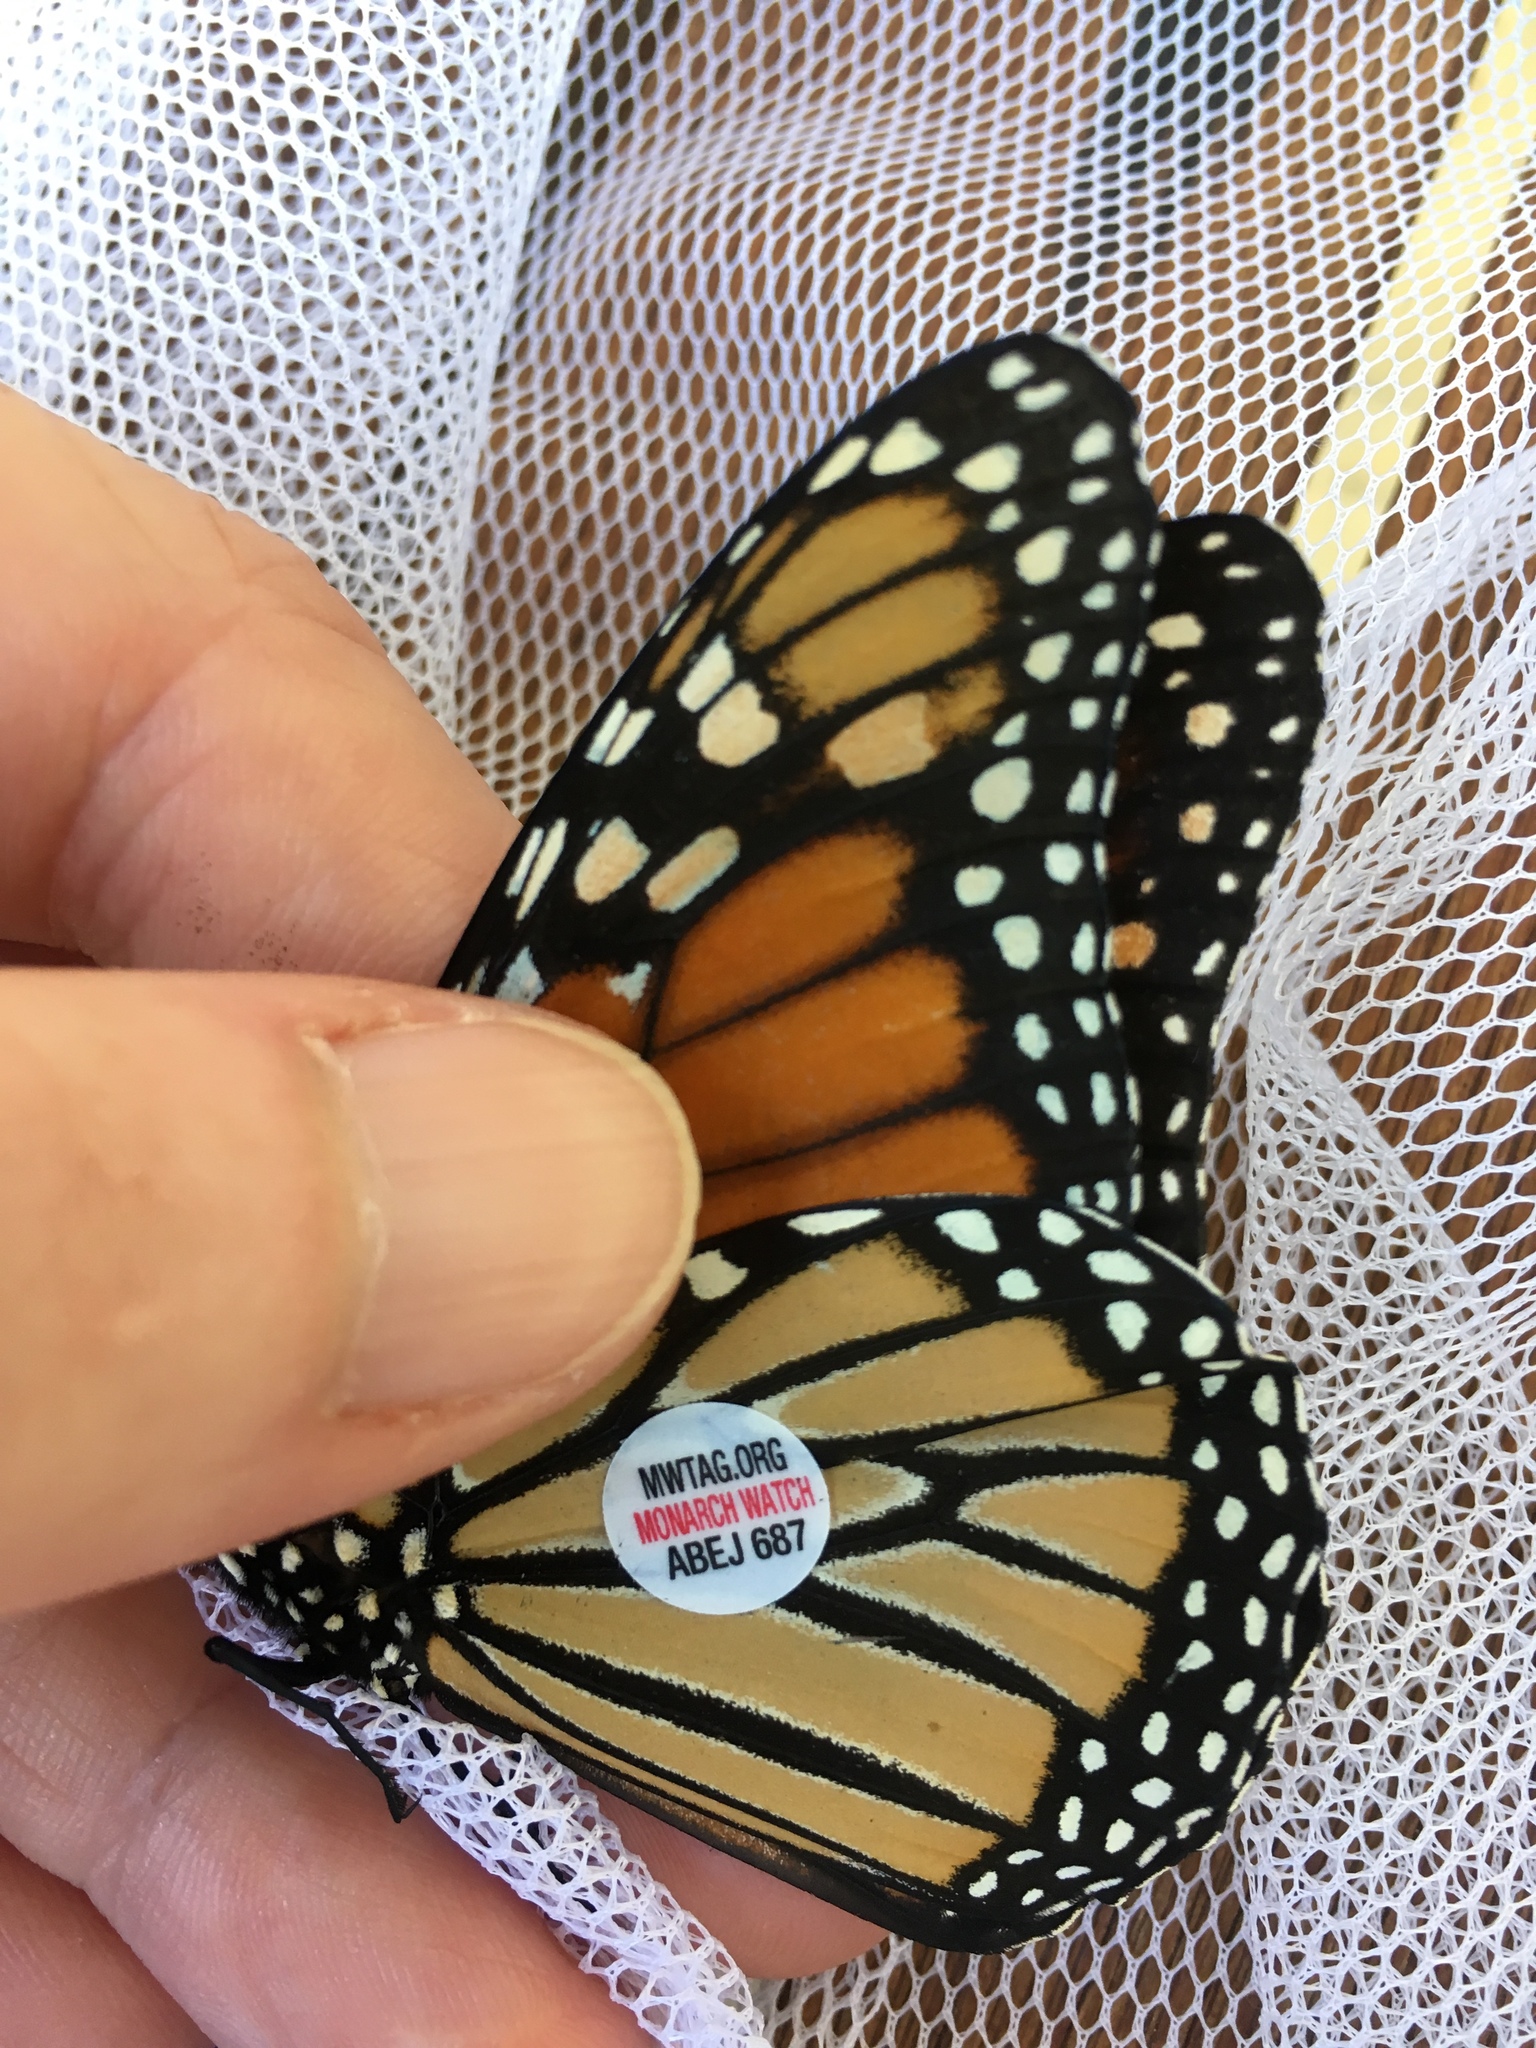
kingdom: Animalia
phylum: Arthropoda
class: Insecta
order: Lepidoptera
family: Nymphalidae
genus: Danaus
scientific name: Danaus plexippus
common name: Monarch
